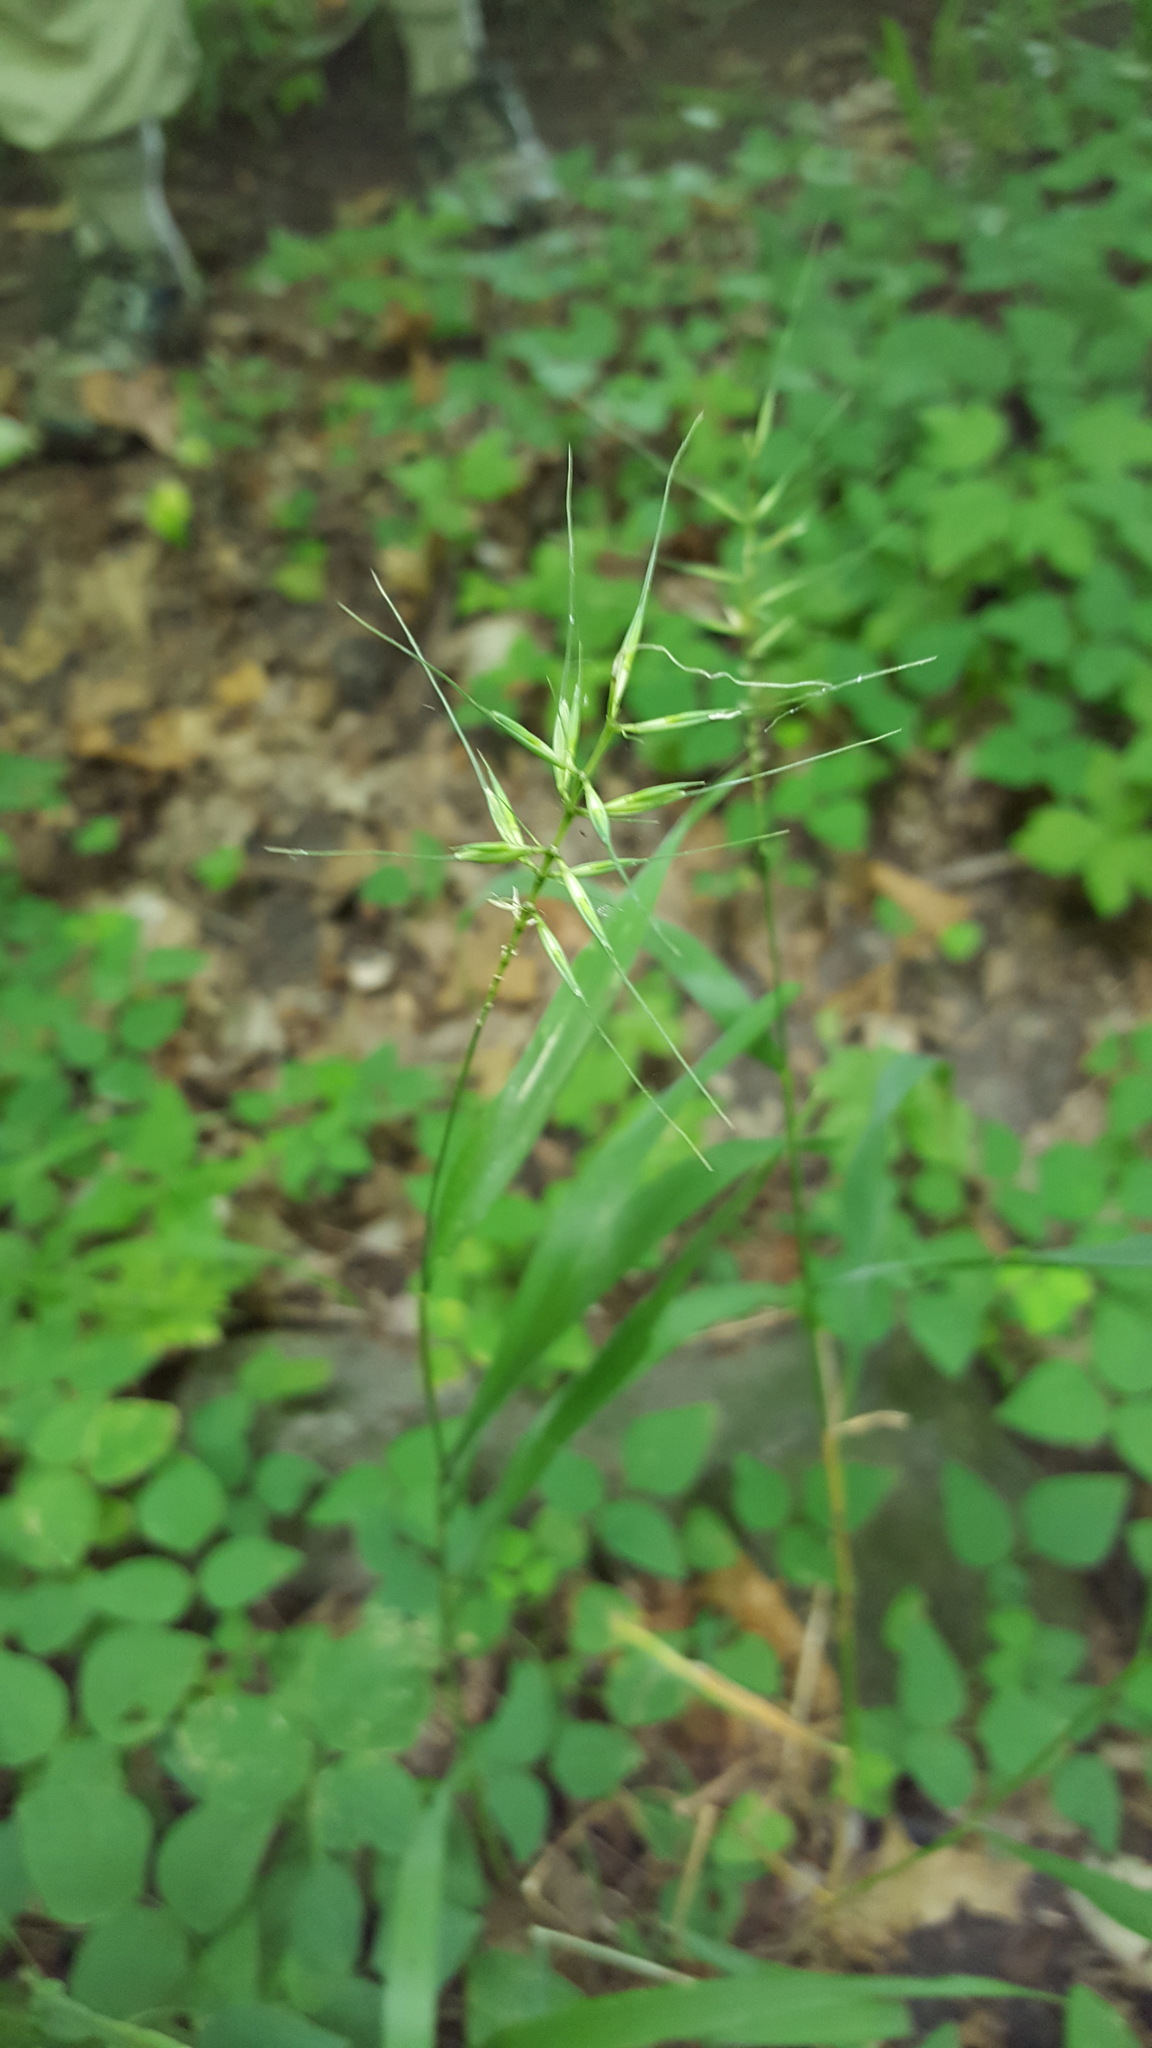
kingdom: Plantae
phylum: Tracheophyta
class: Liliopsida
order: Poales
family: Poaceae
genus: Elymus
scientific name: Elymus hystrix
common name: Bottlebrush grass
